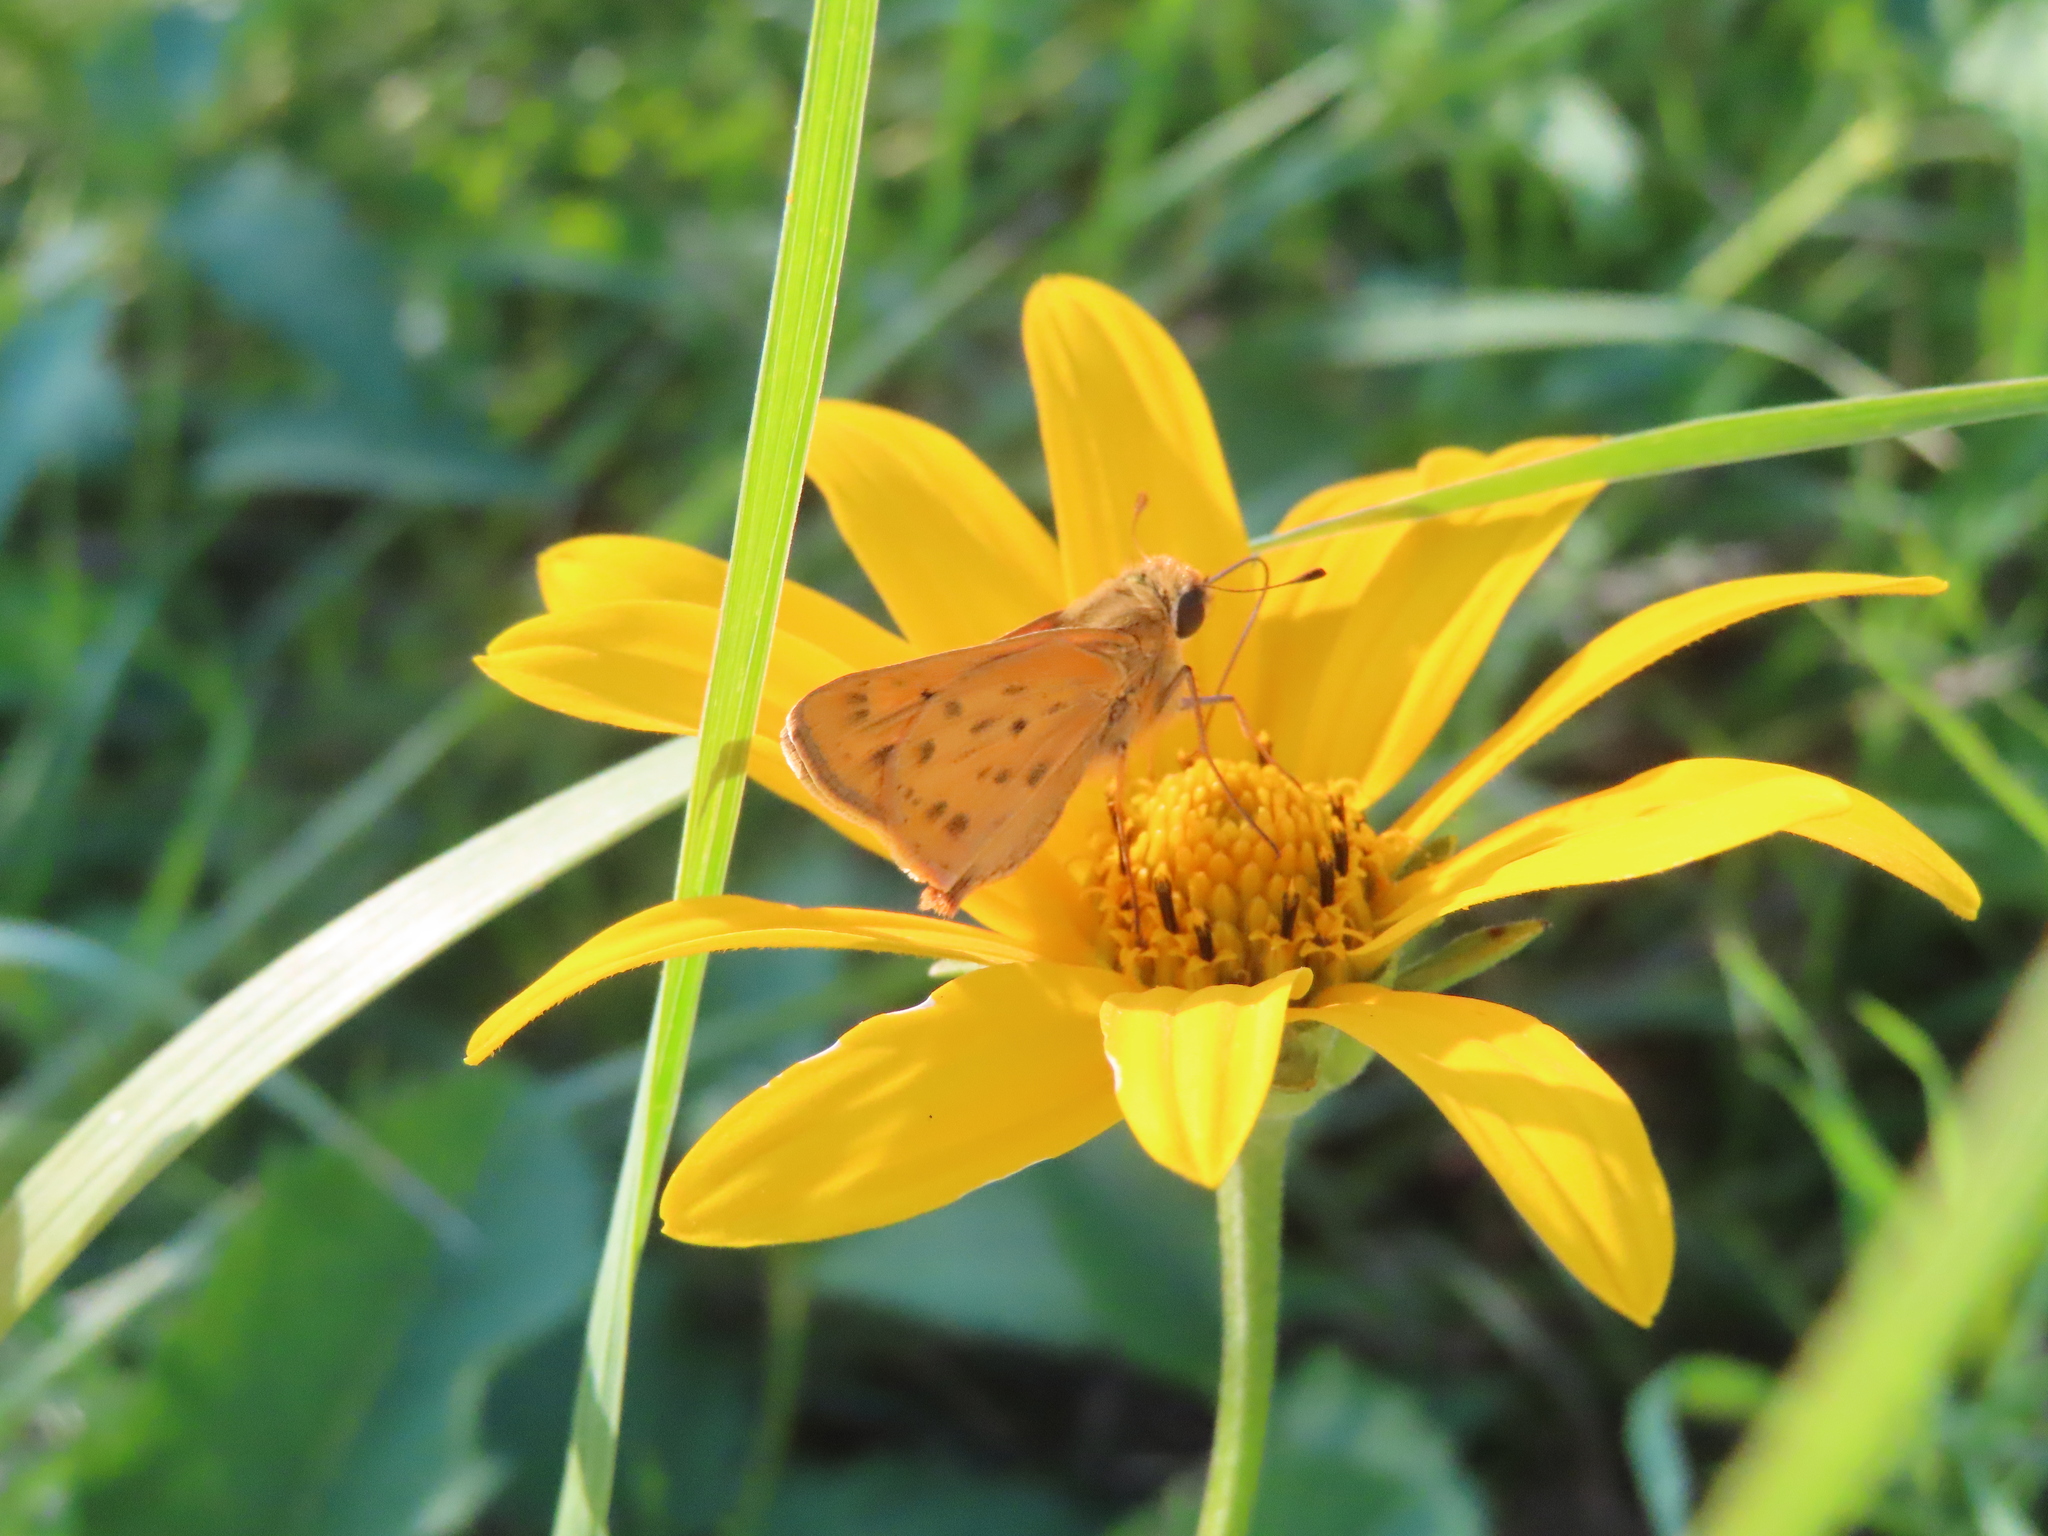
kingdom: Animalia
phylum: Arthropoda
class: Insecta
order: Lepidoptera
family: Hesperiidae
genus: Hylephila
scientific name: Hylephila phyleus
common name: Fiery skipper
